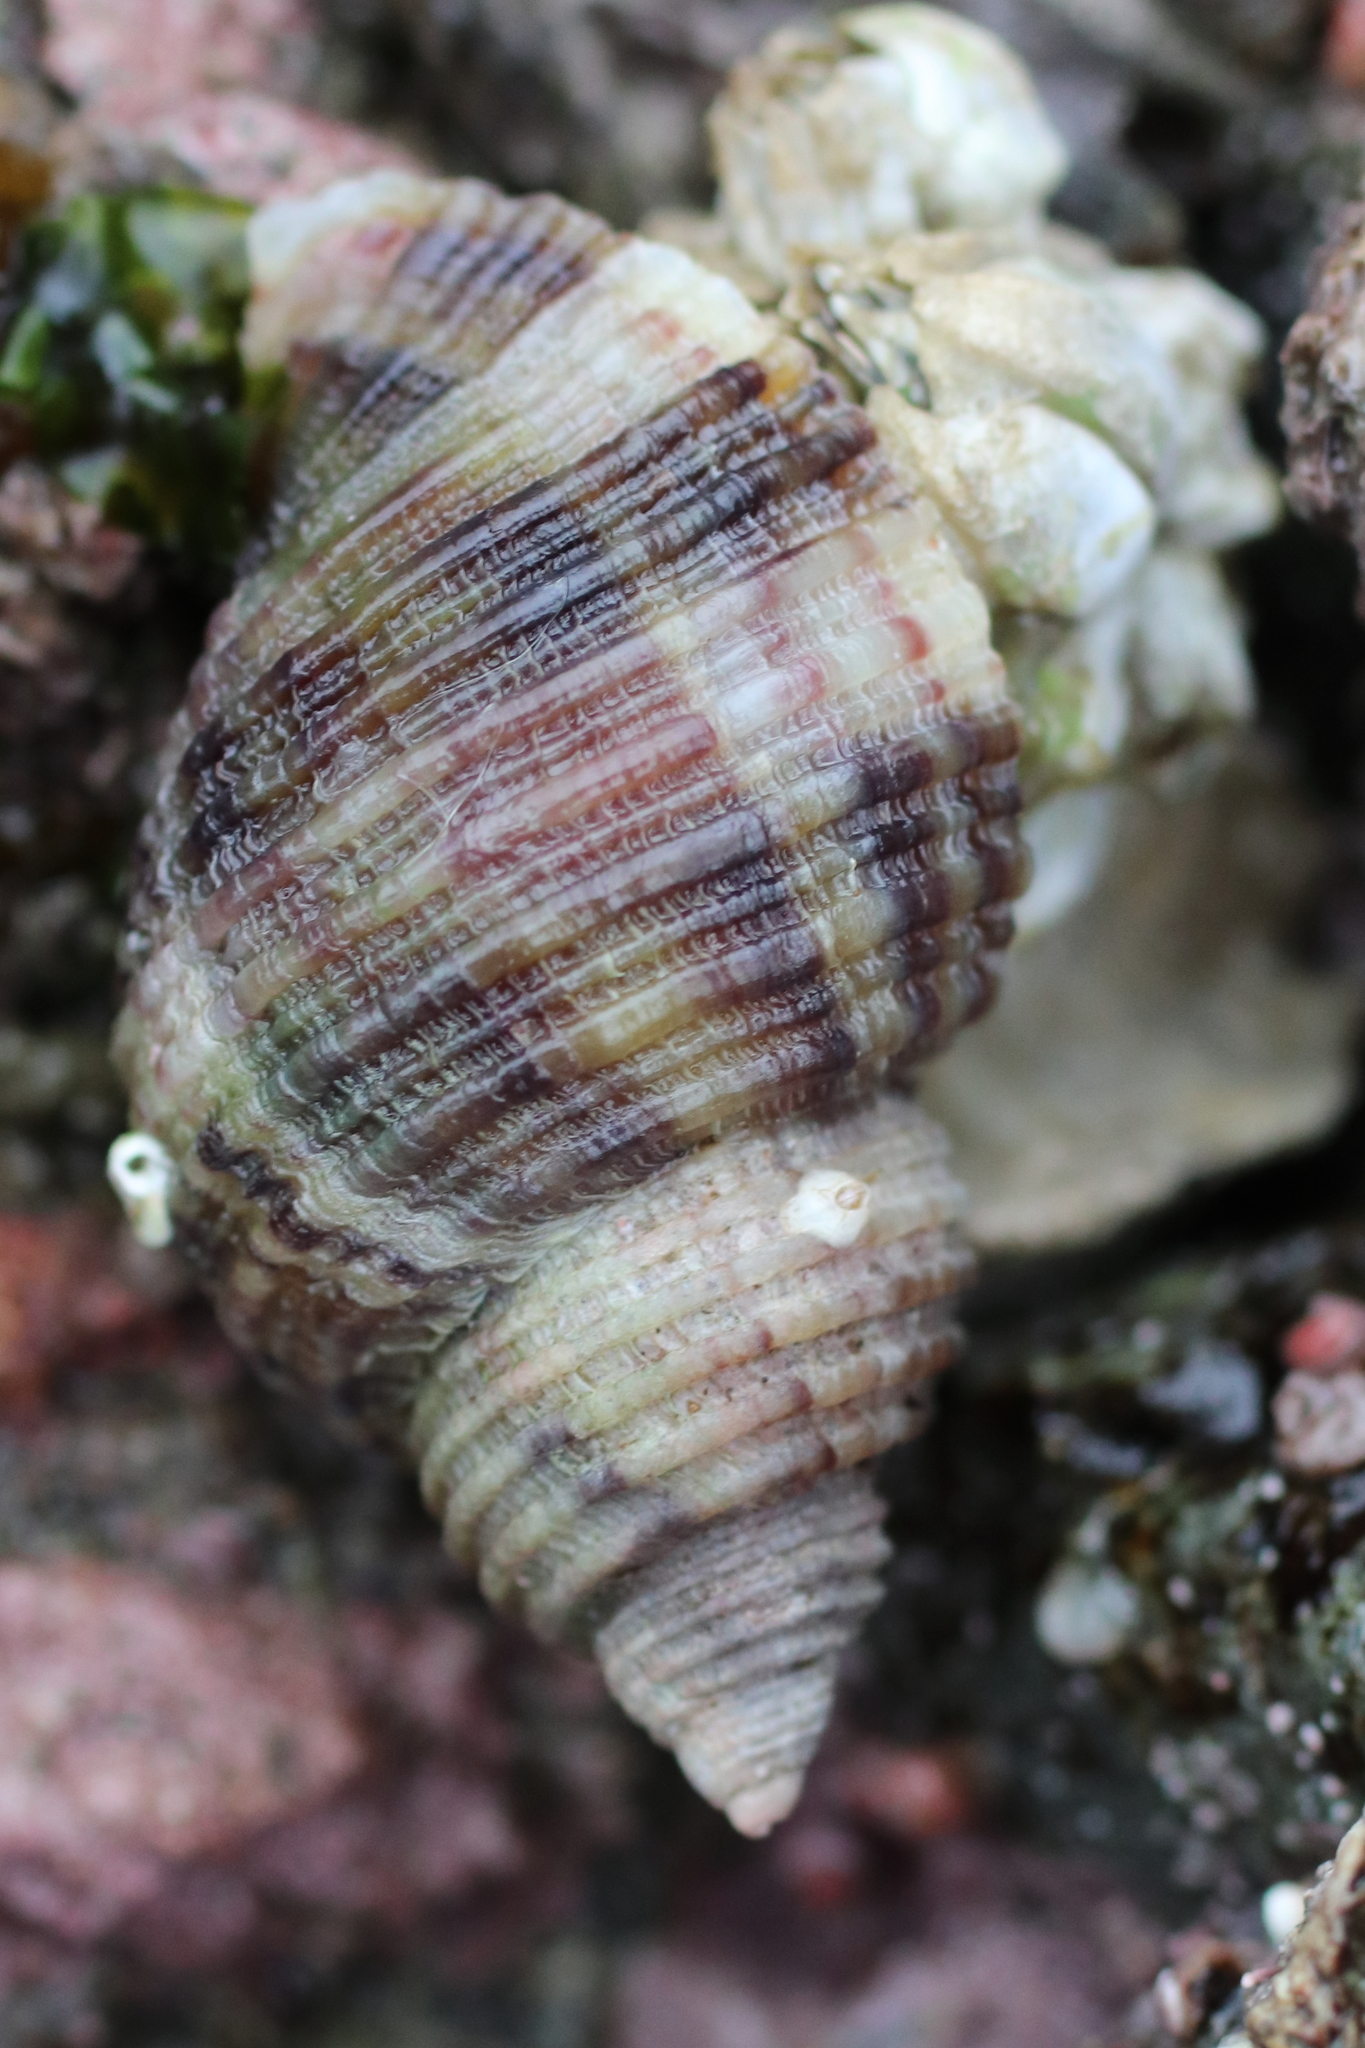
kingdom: Animalia
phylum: Mollusca
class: Gastropoda
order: Neogastropoda
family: Muricidae
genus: Nucella
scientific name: Nucella canaliculata
